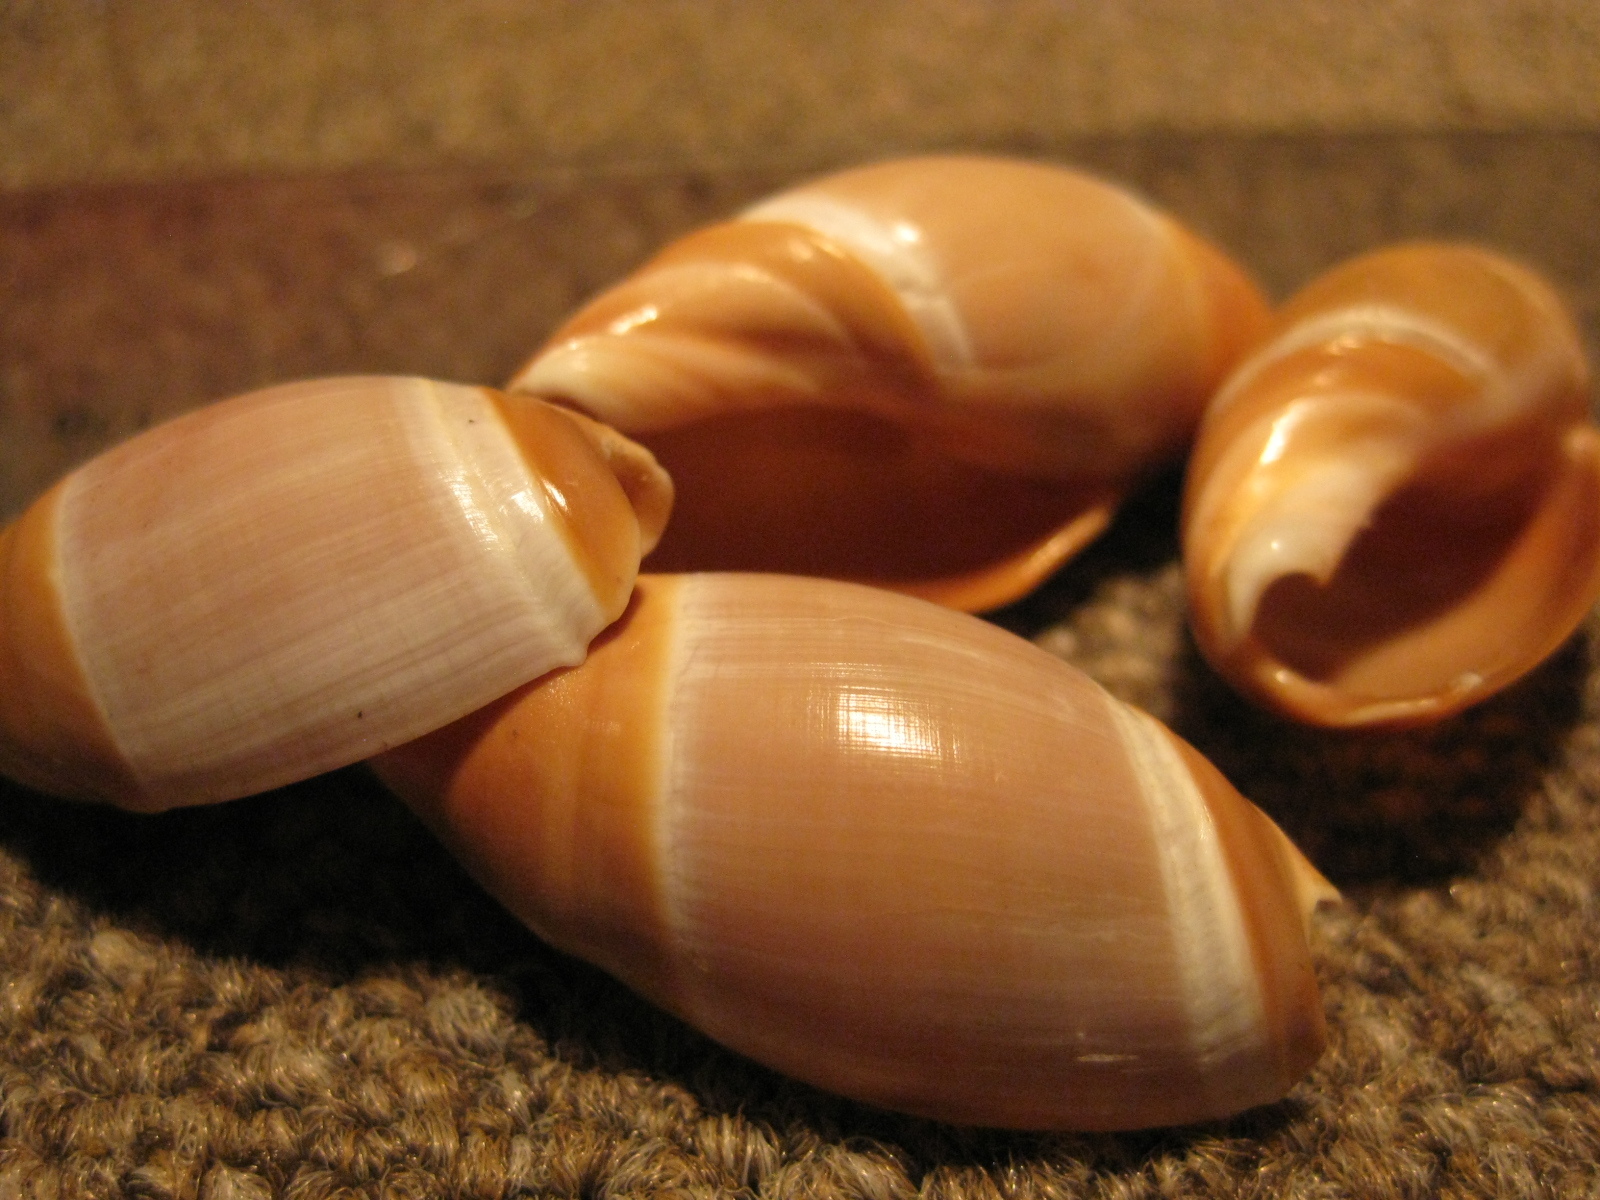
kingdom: Animalia
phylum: Mollusca
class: Gastropoda
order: Neogastropoda
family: Ancillariidae
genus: Amalda
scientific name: Amalda mucronata
